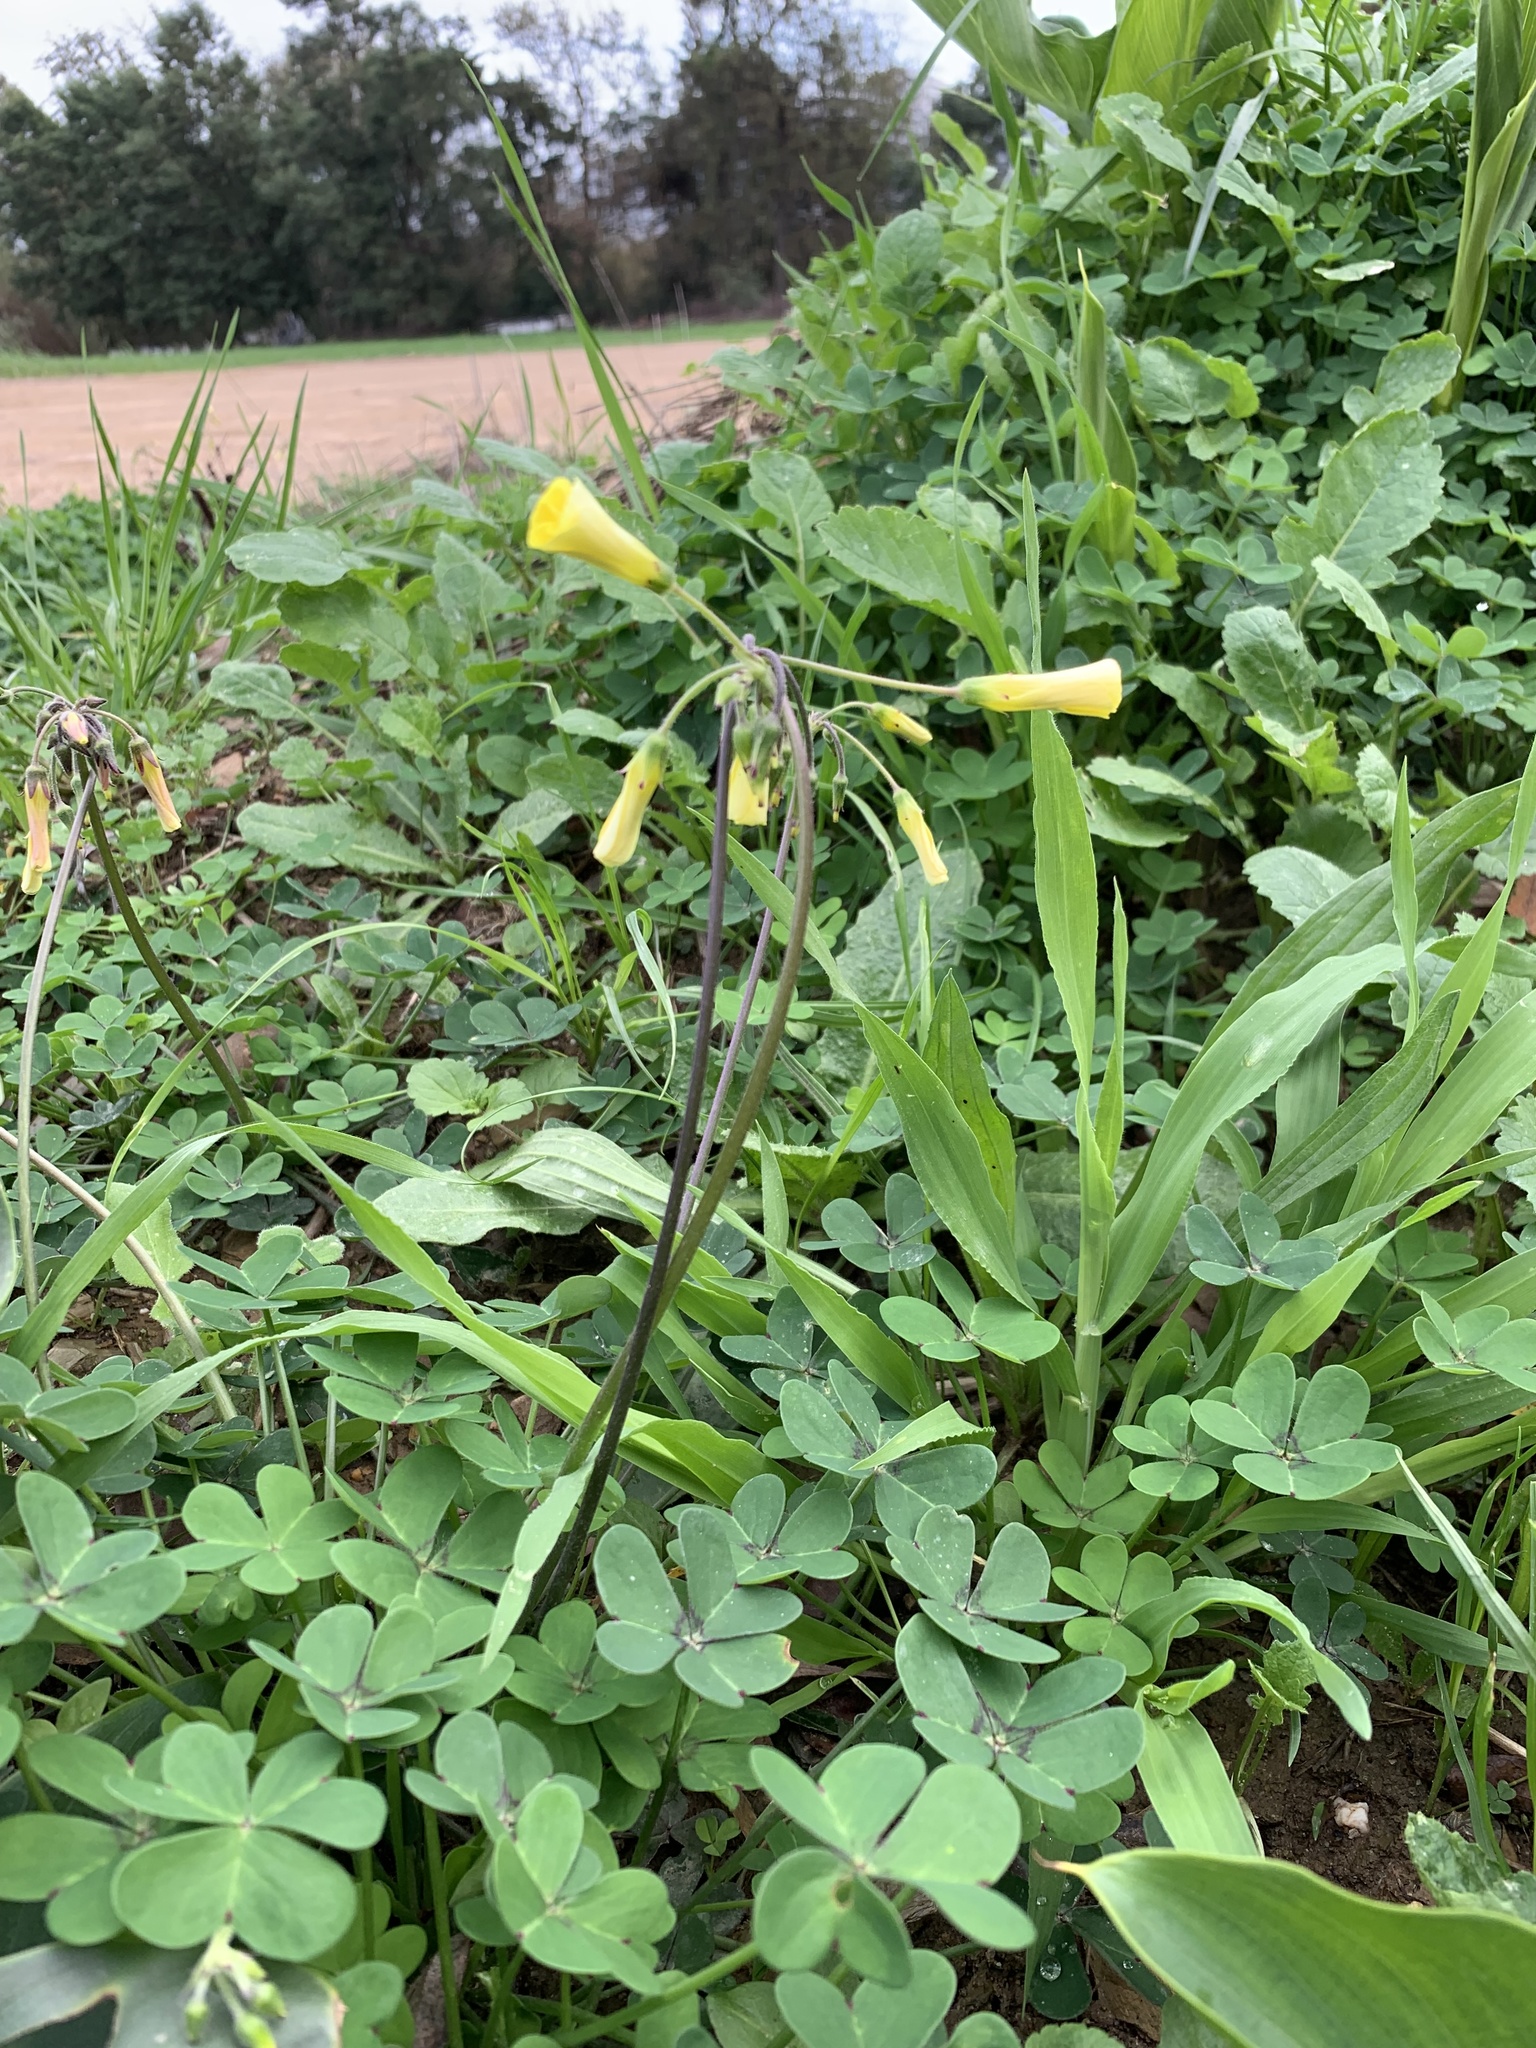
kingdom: Plantae
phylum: Tracheophyta
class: Magnoliopsida
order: Oxalidales
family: Oxalidaceae
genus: Oxalis
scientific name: Oxalis pes-caprae
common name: Bermuda-buttercup
